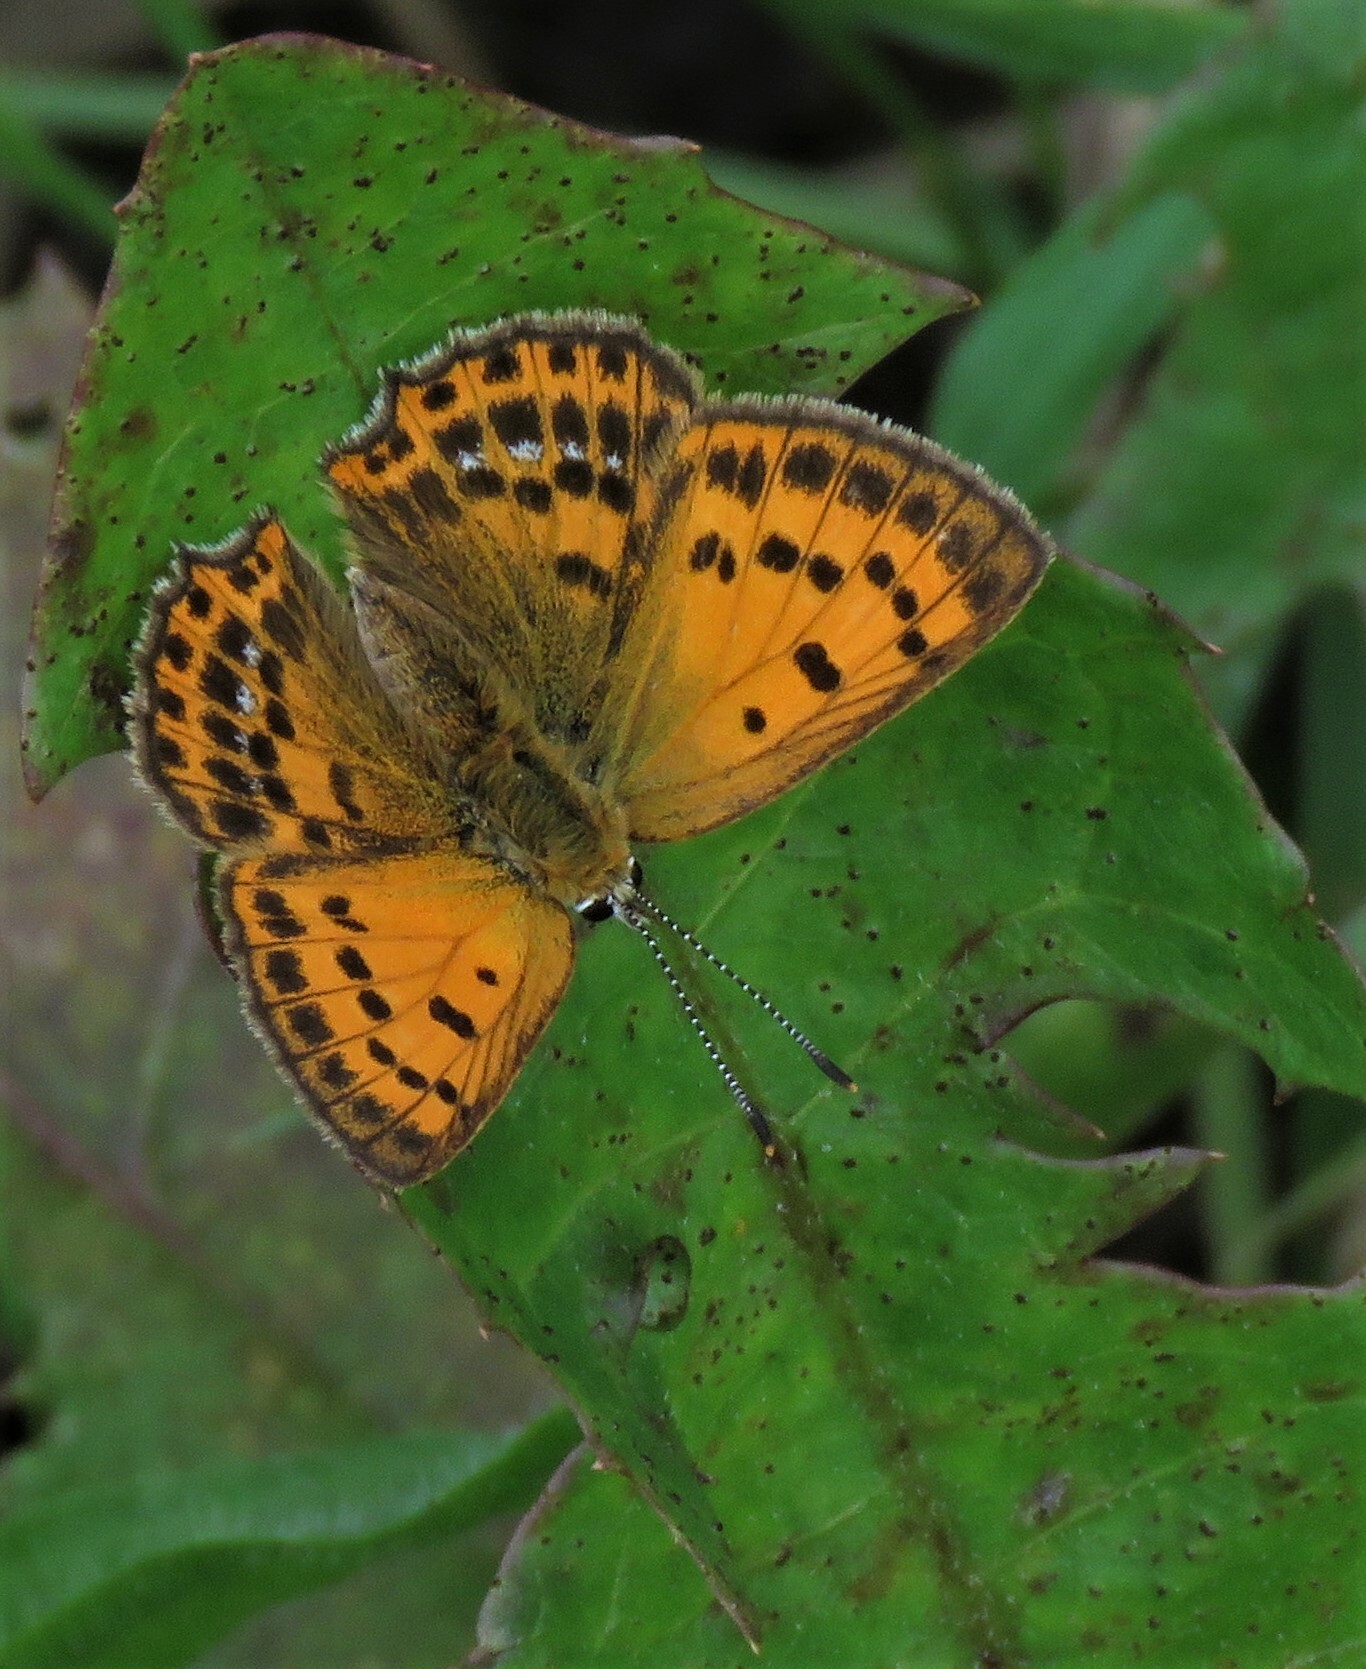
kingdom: Animalia
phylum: Arthropoda
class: Insecta
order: Lepidoptera
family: Lycaenidae
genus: Lycaena
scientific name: Lycaena virgaureae
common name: Scarce copper
